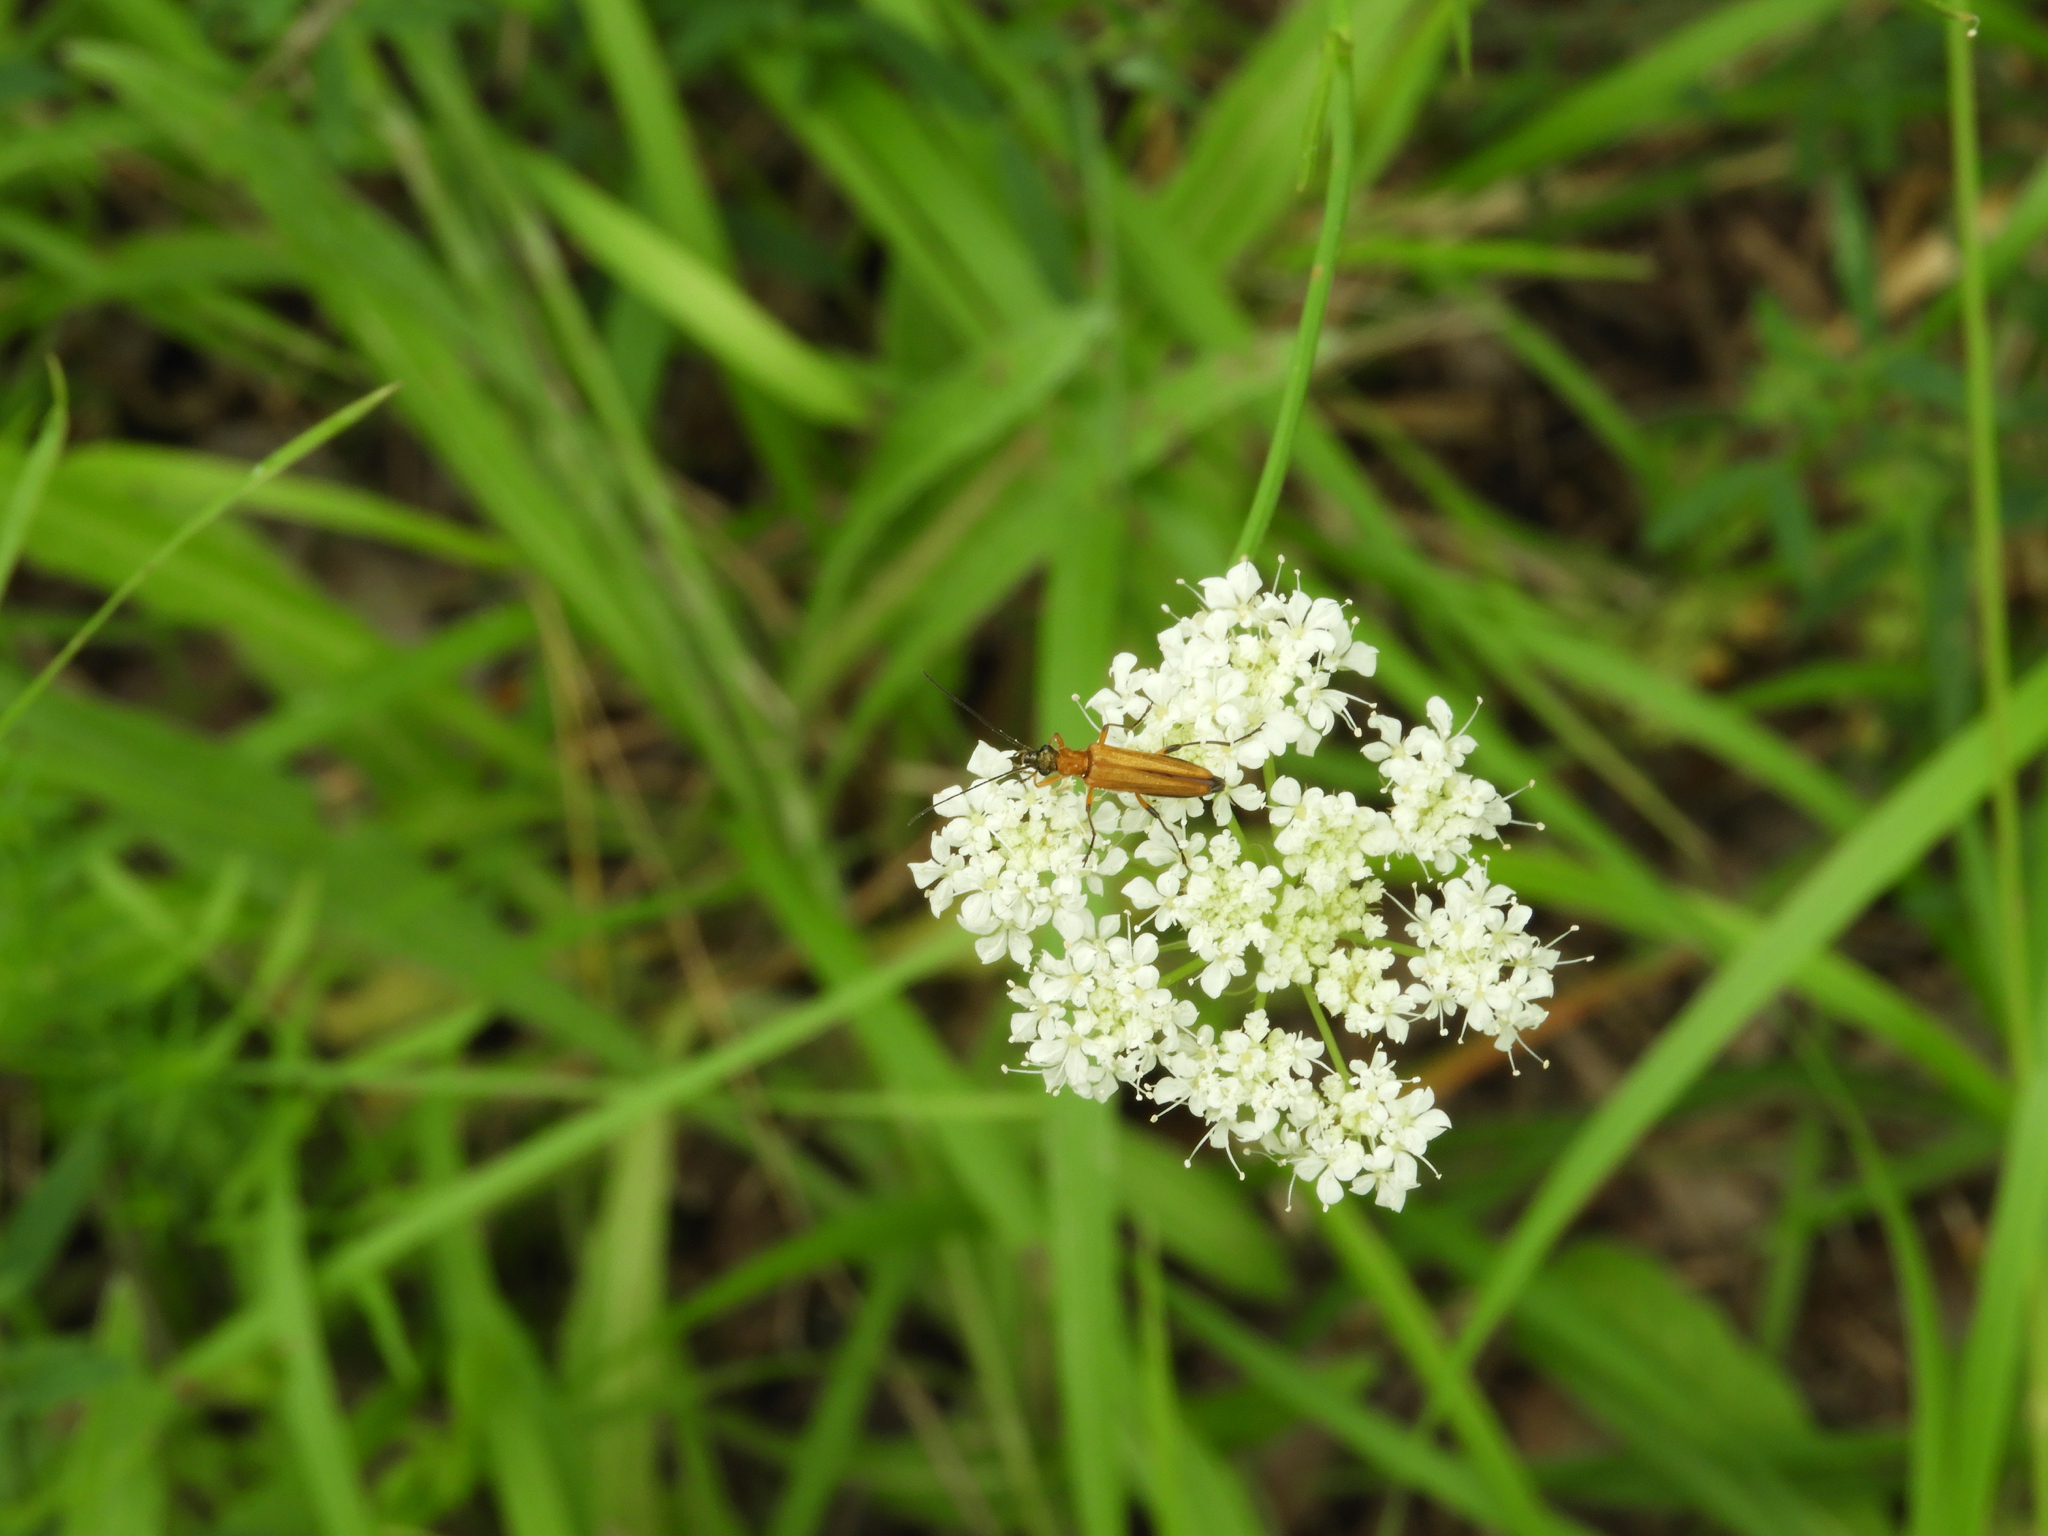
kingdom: Animalia
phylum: Arthropoda
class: Insecta
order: Coleoptera
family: Oedemeridae
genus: Oedemera
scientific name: Oedemera podagrariae
